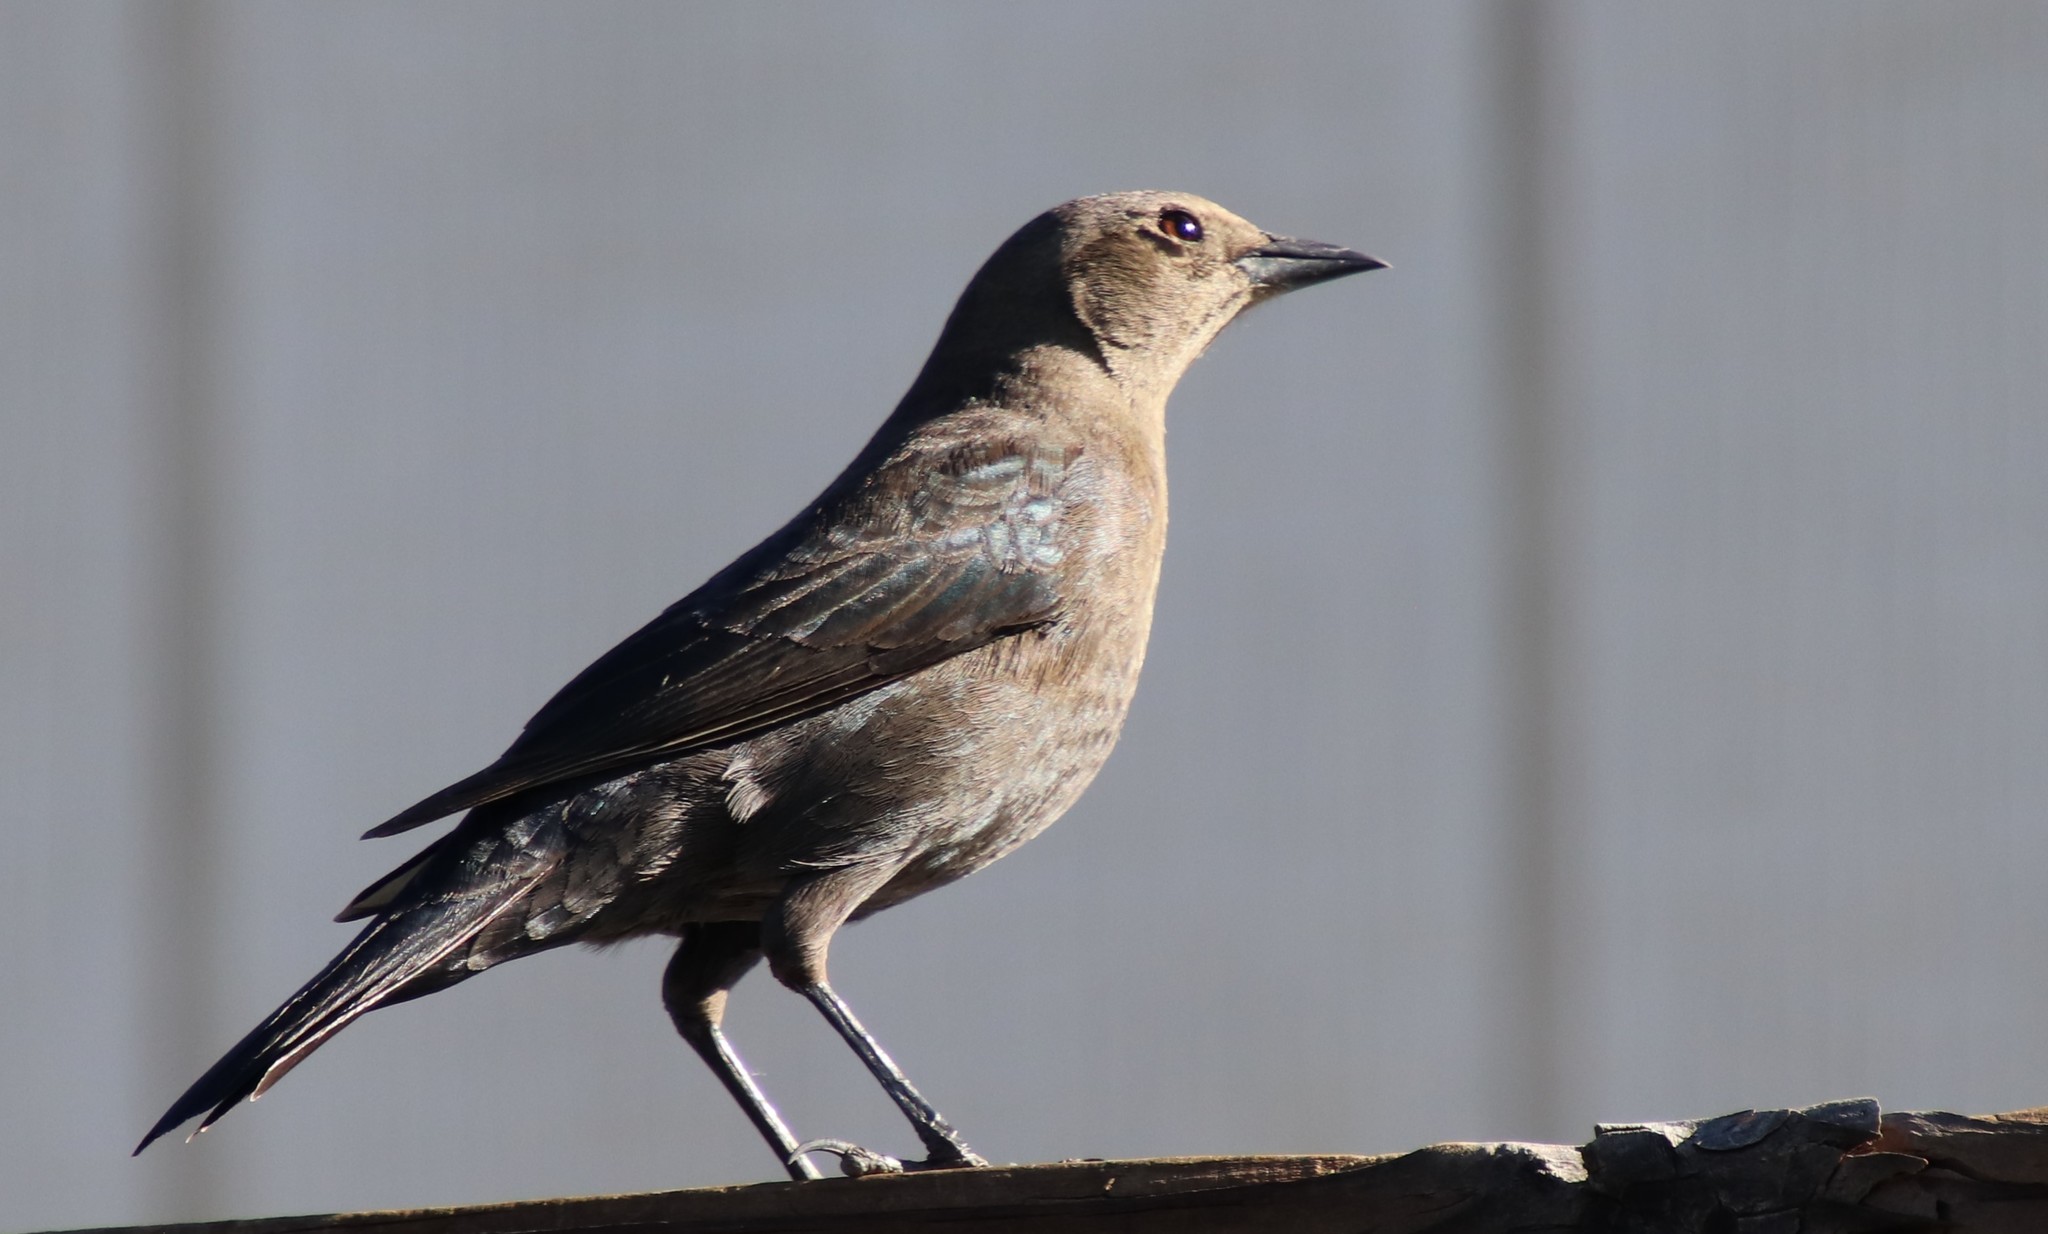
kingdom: Animalia
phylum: Chordata
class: Aves
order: Passeriformes
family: Icteridae
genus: Euphagus
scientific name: Euphagus cyanocephalus
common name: Brewer's blackbird
